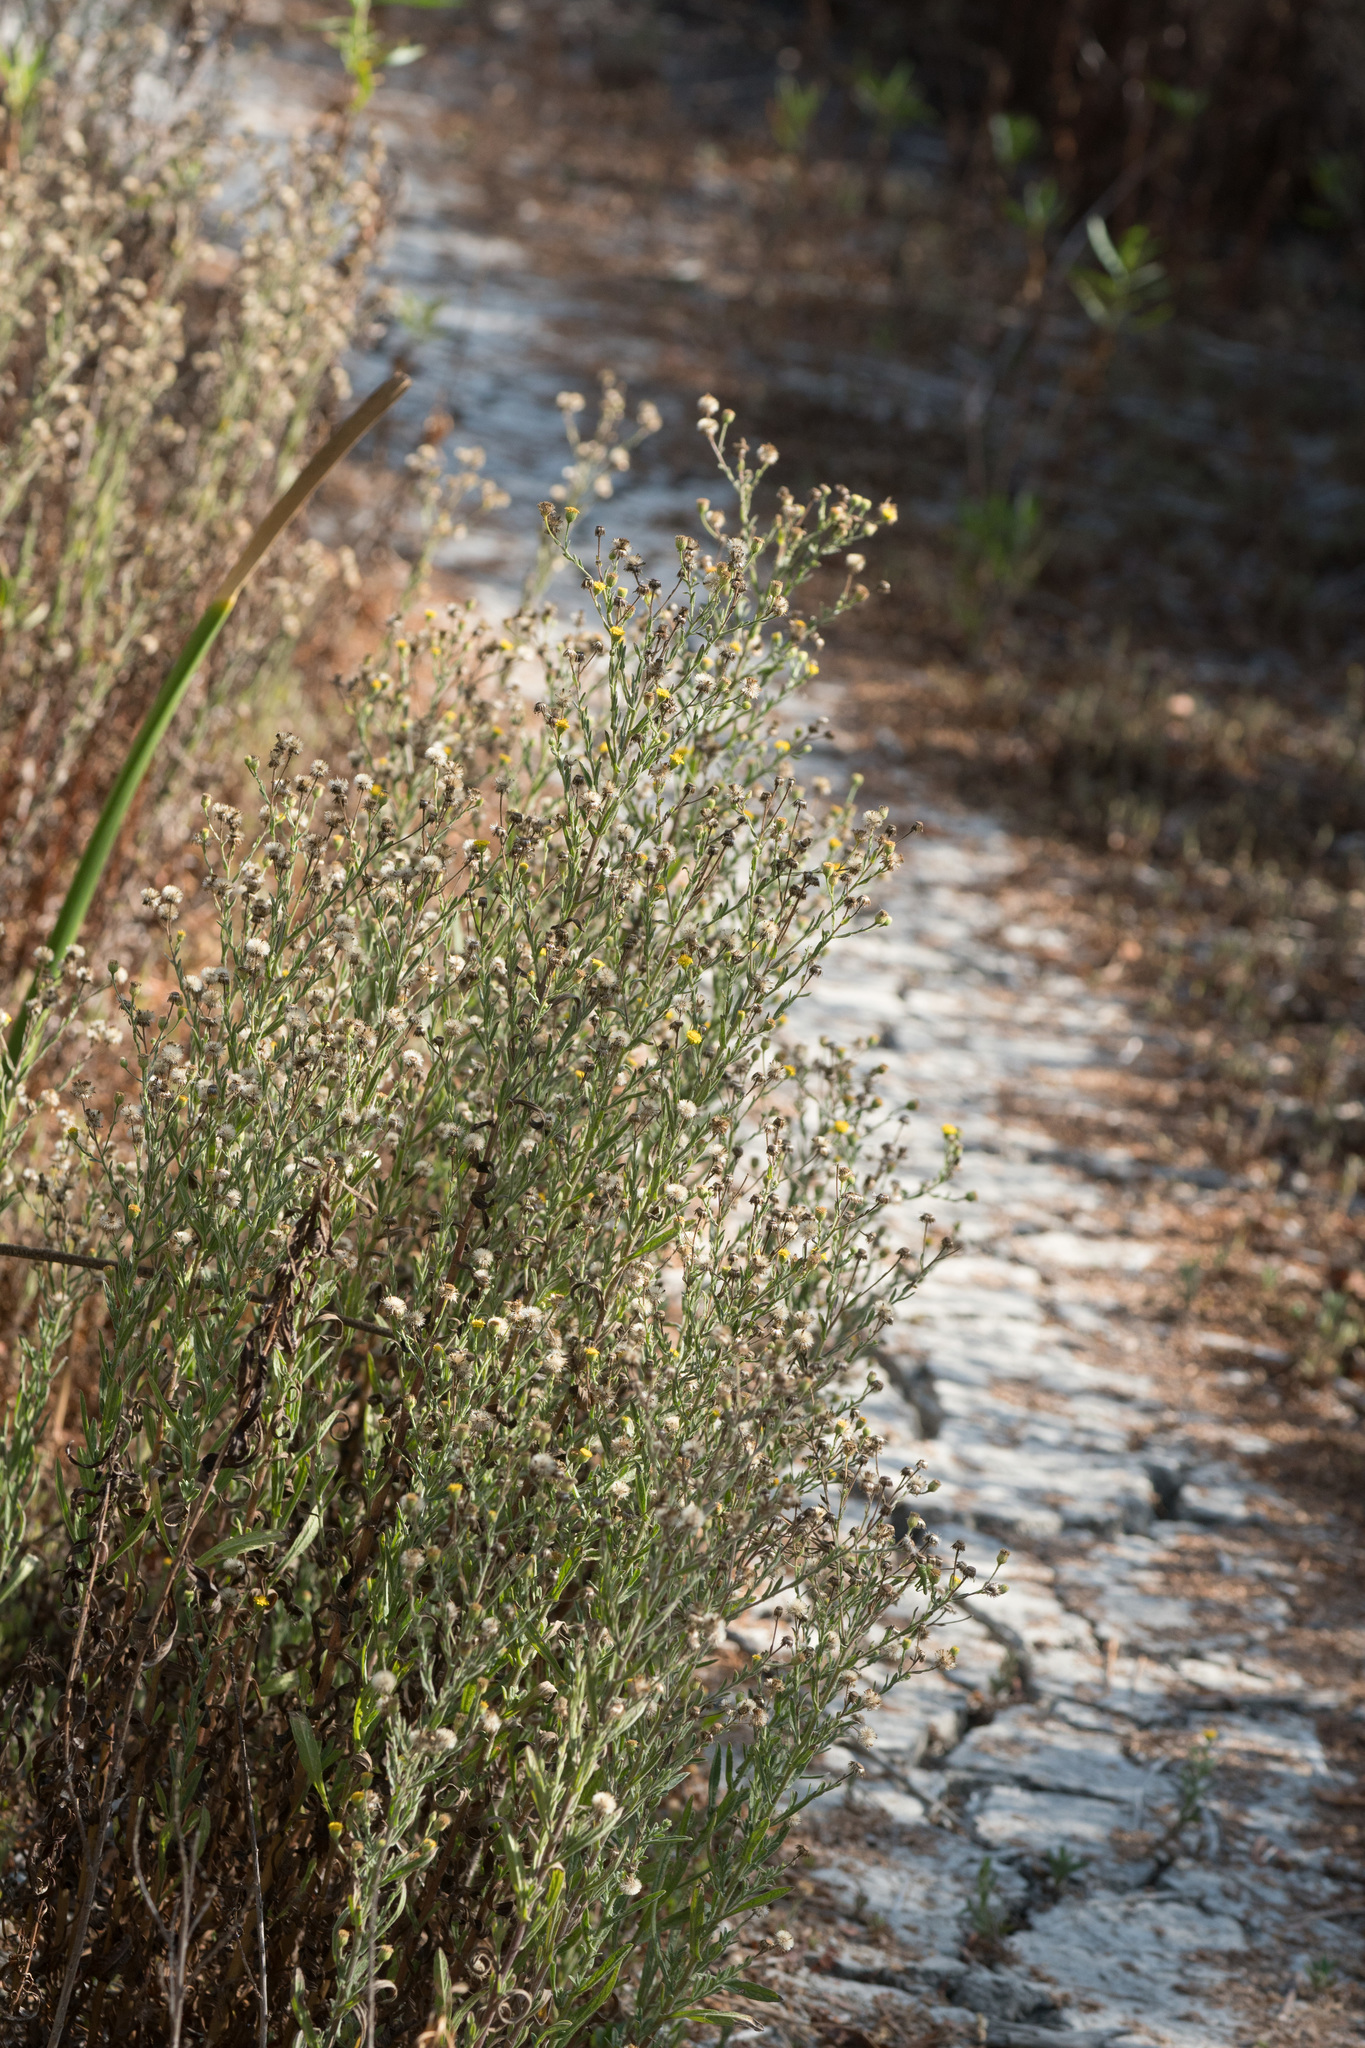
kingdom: Plantae
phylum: Tracheophyta
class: Magnoliopsida
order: Asterales
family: Asteraceae
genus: Pulicaria
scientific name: Pulicaria paludosa
